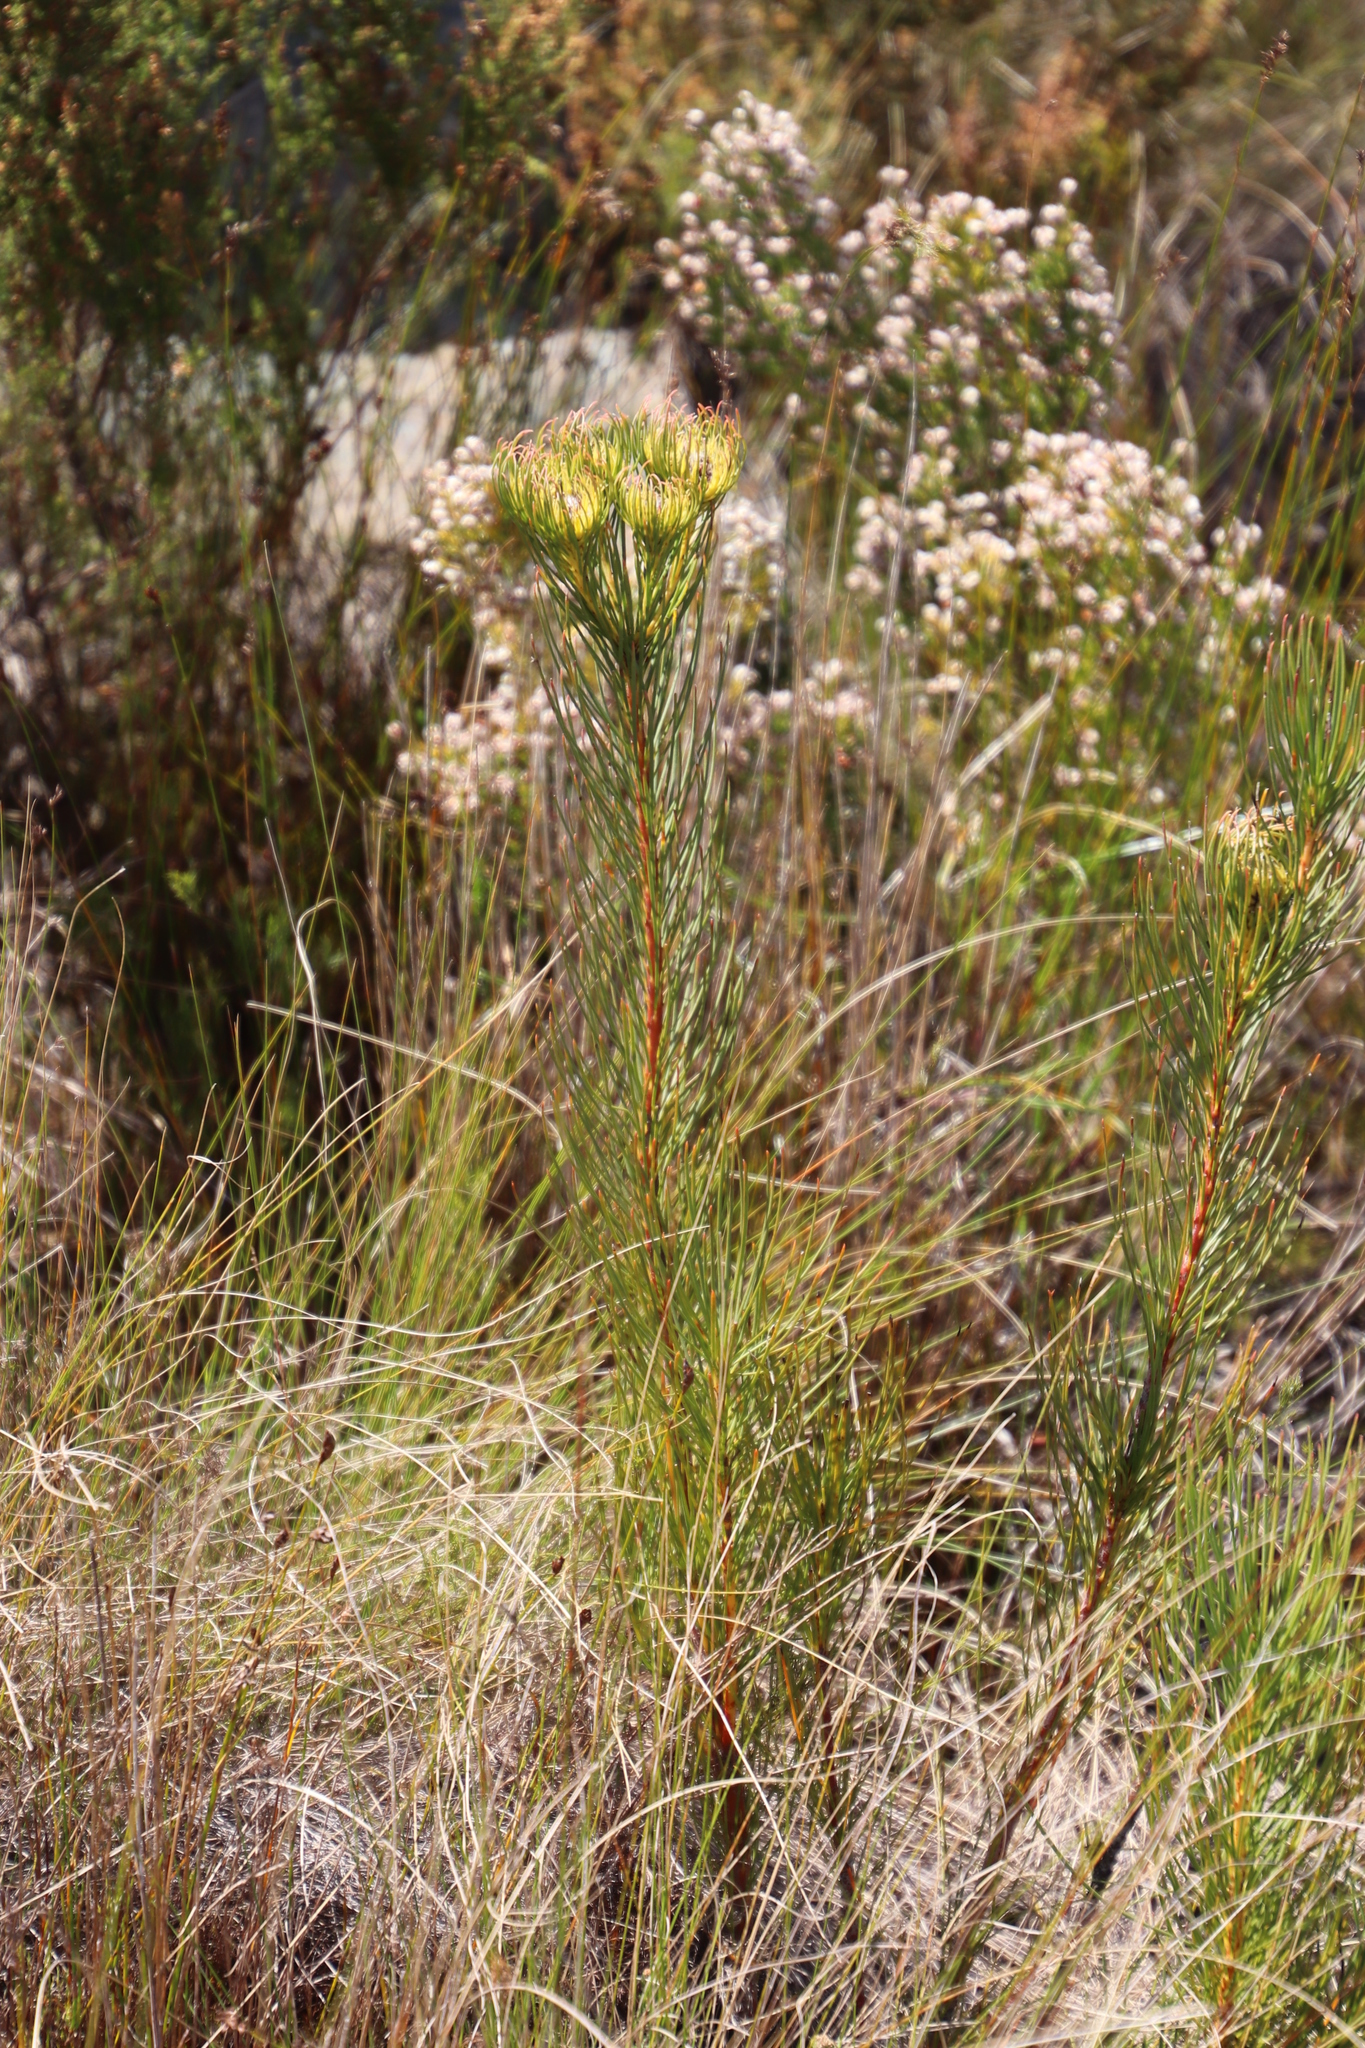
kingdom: Plantae
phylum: Tracheophyta
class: Magnoliopsida
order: Proteales
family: Proteaceae
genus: Aulax
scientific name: Aulax pallasia
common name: Needle-leaf featherbush
